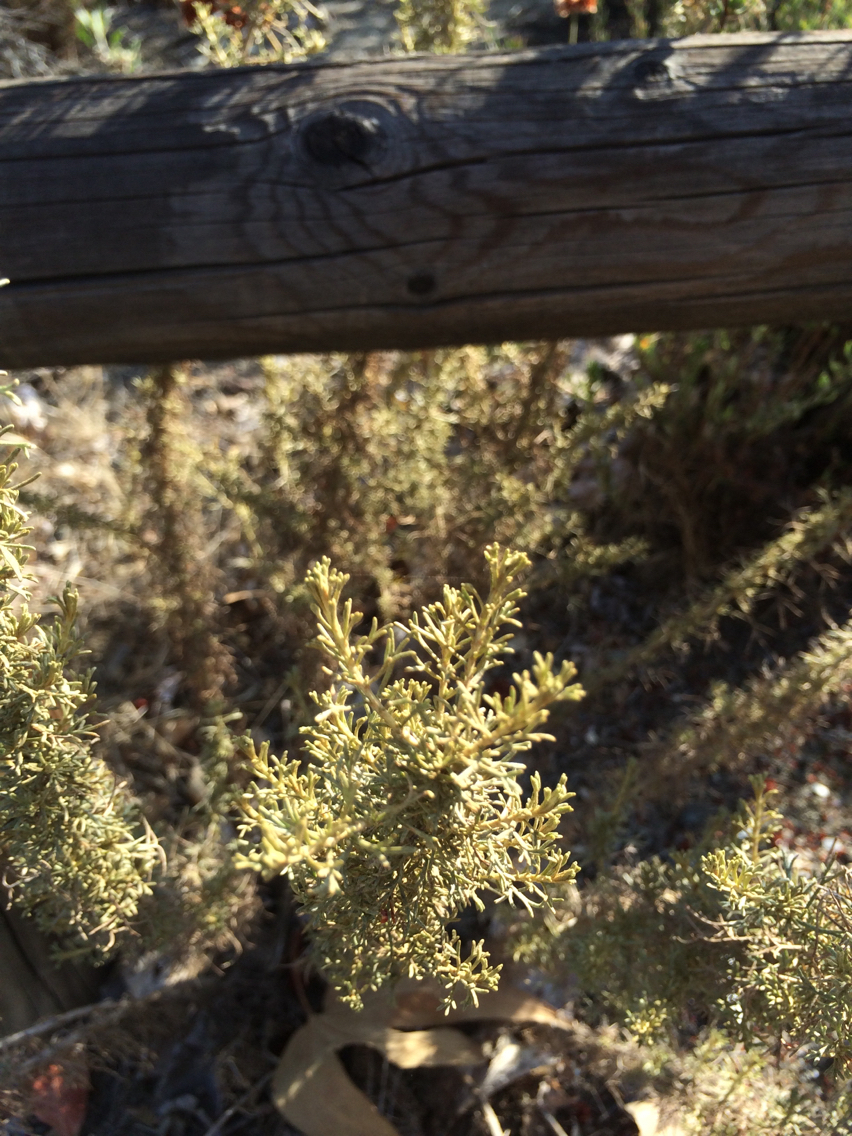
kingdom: Plantae
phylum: Tracheophyta
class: Magnoliopsida
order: Asterales
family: Asteraceae
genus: Artemisia
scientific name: Artemisia californica
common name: California sagebrush
